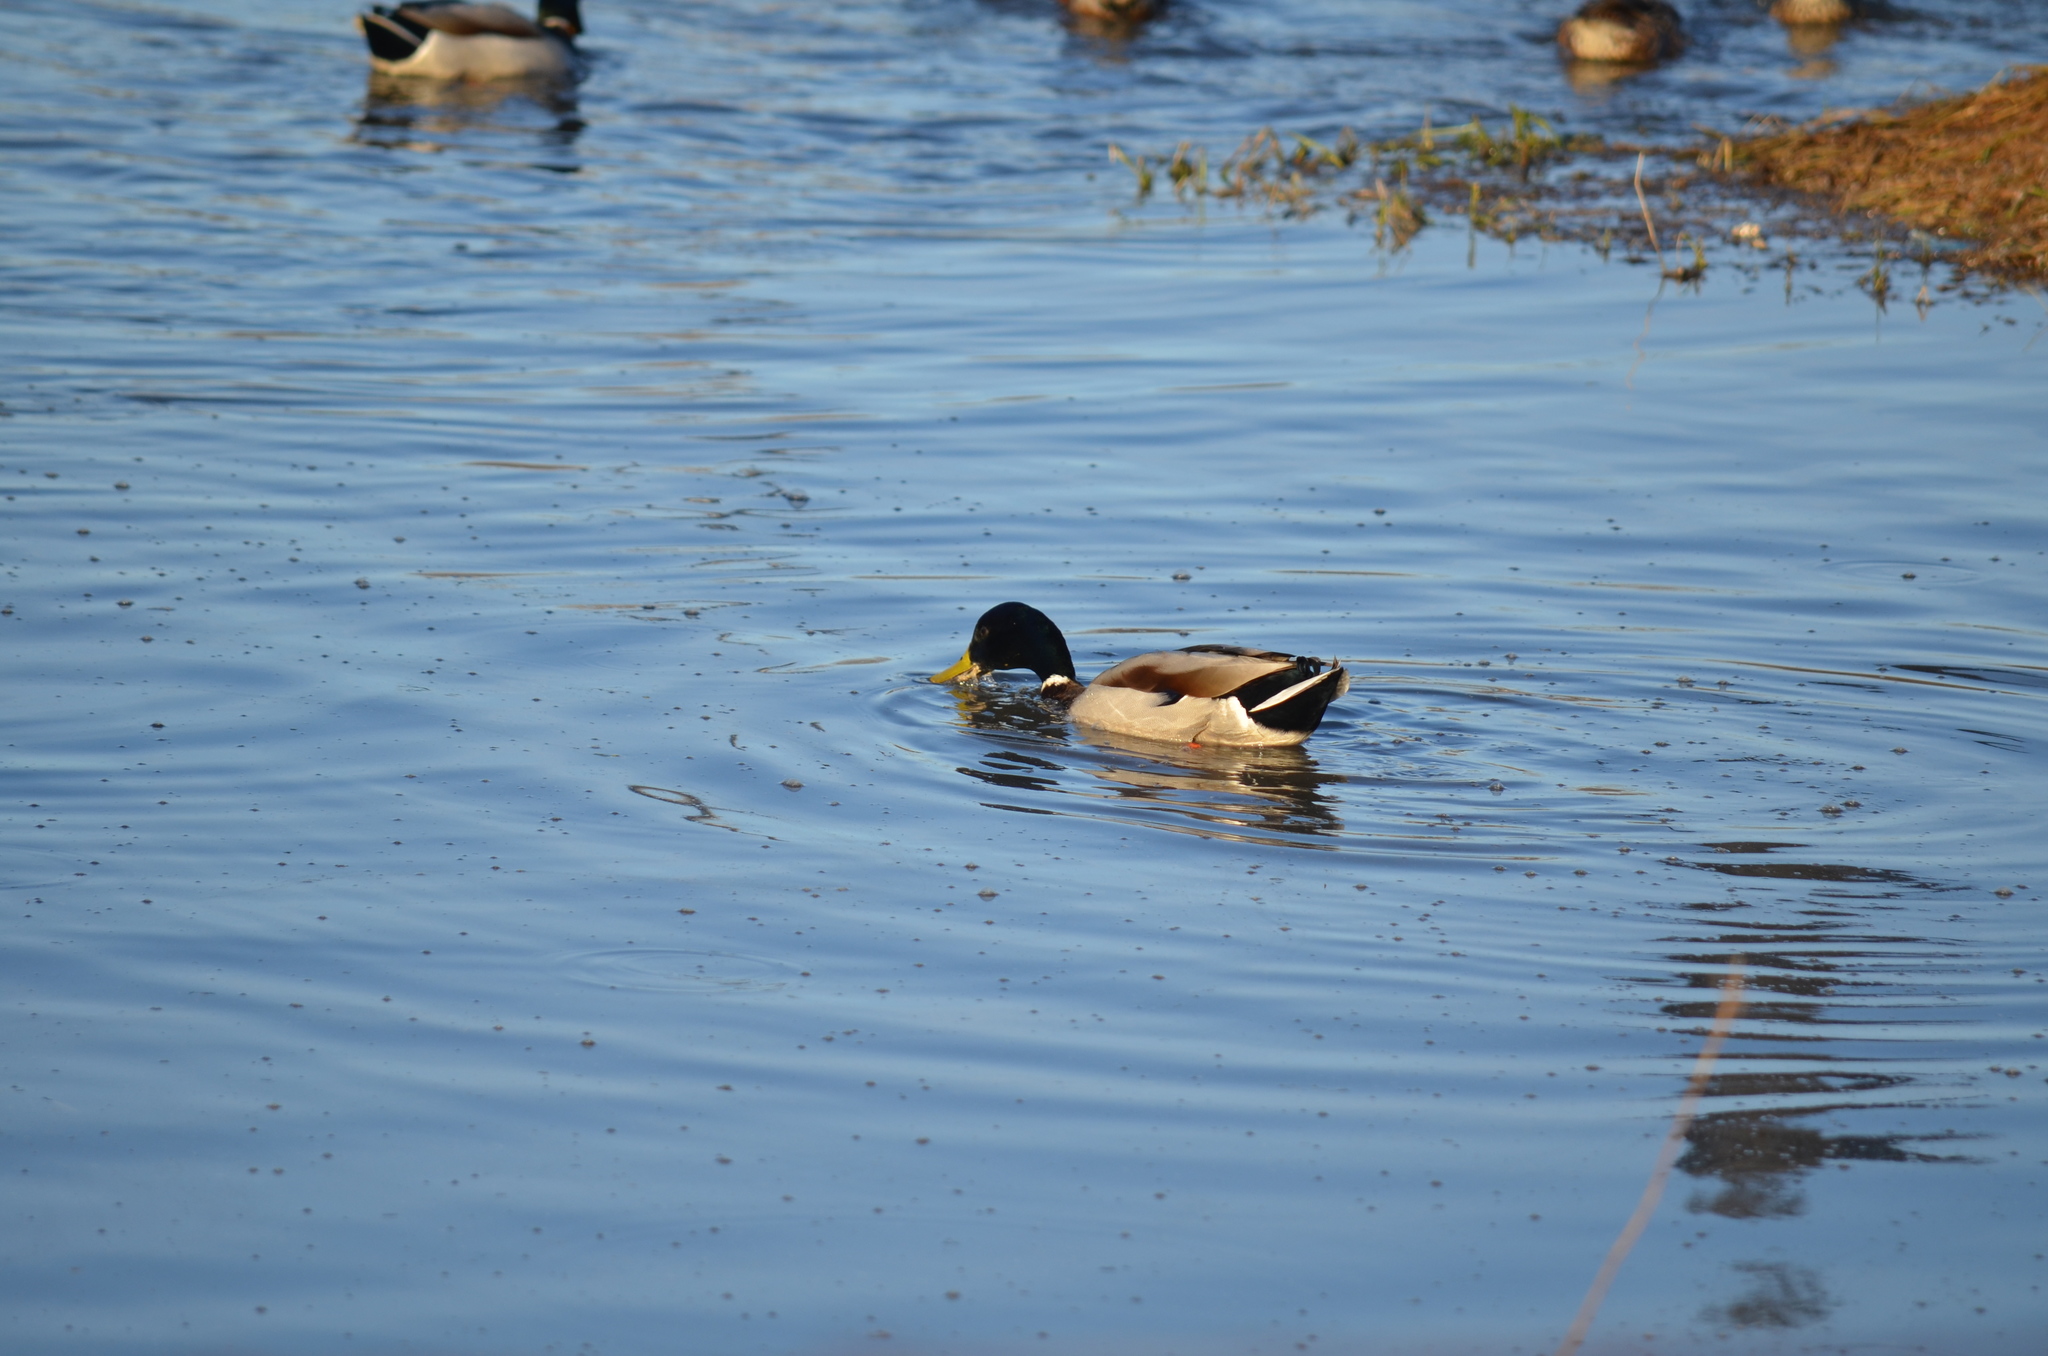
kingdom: Animalia
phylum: Chordata
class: Aves
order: Anseriformes
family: Anatidae
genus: Anas
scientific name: Anas platyrhynchos
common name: Mallard
